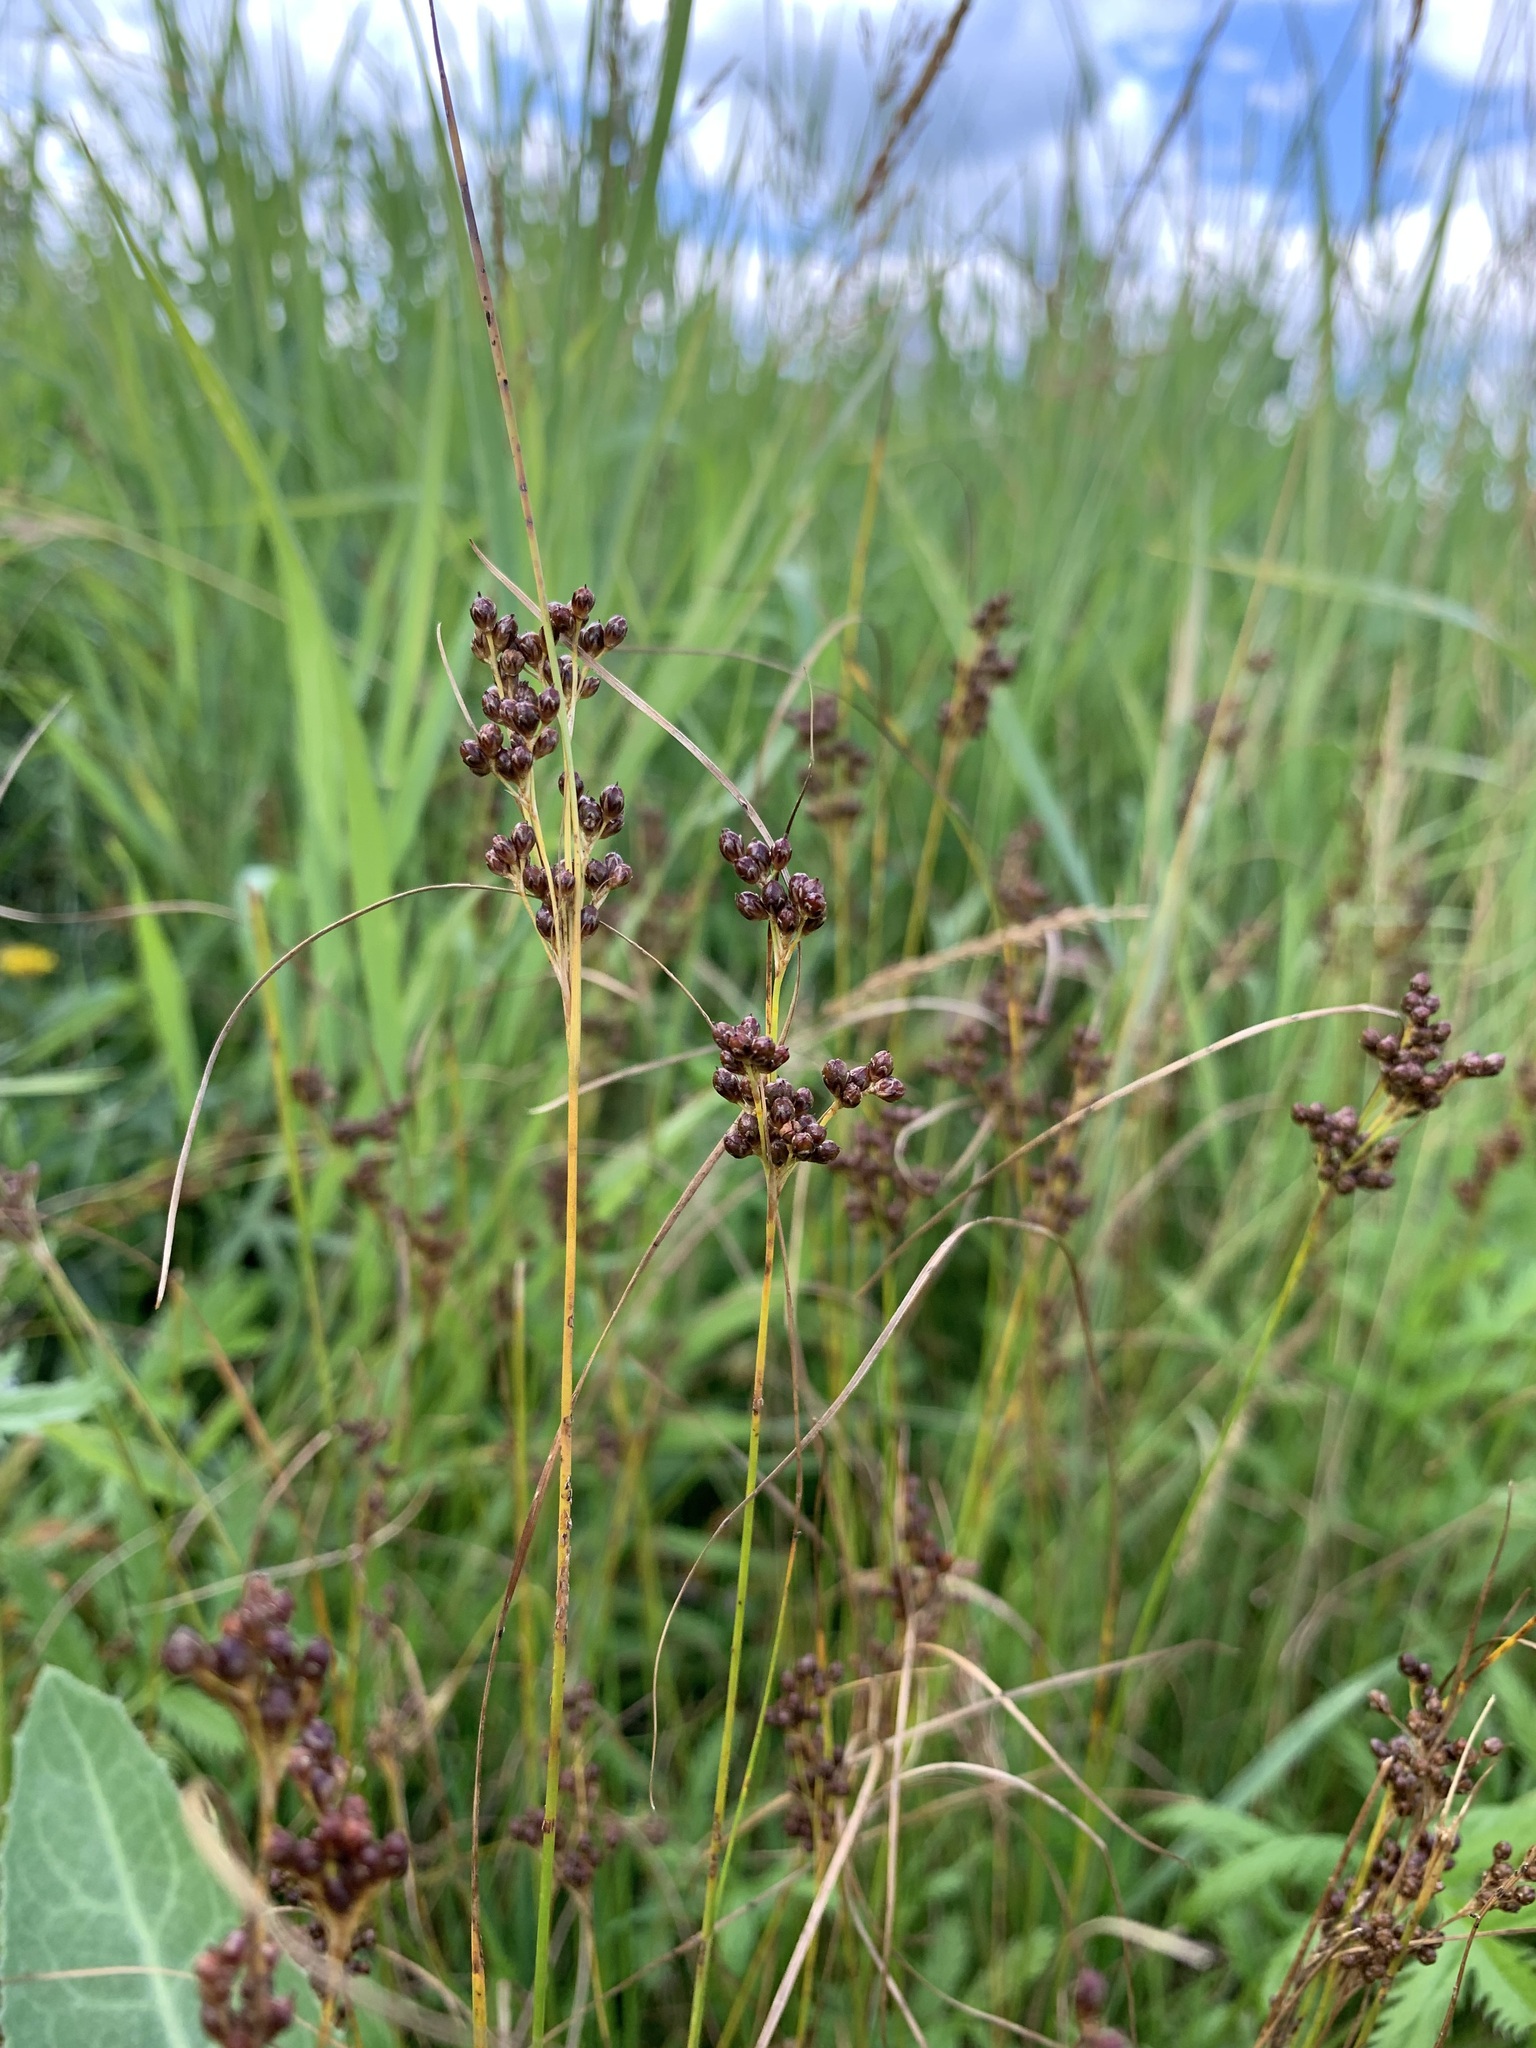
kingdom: Plantae
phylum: Tracheophyta
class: Liliopsida
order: Poales
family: Juncaceae
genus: Juncus
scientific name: Juncus compressus
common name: Round-fruited rush
